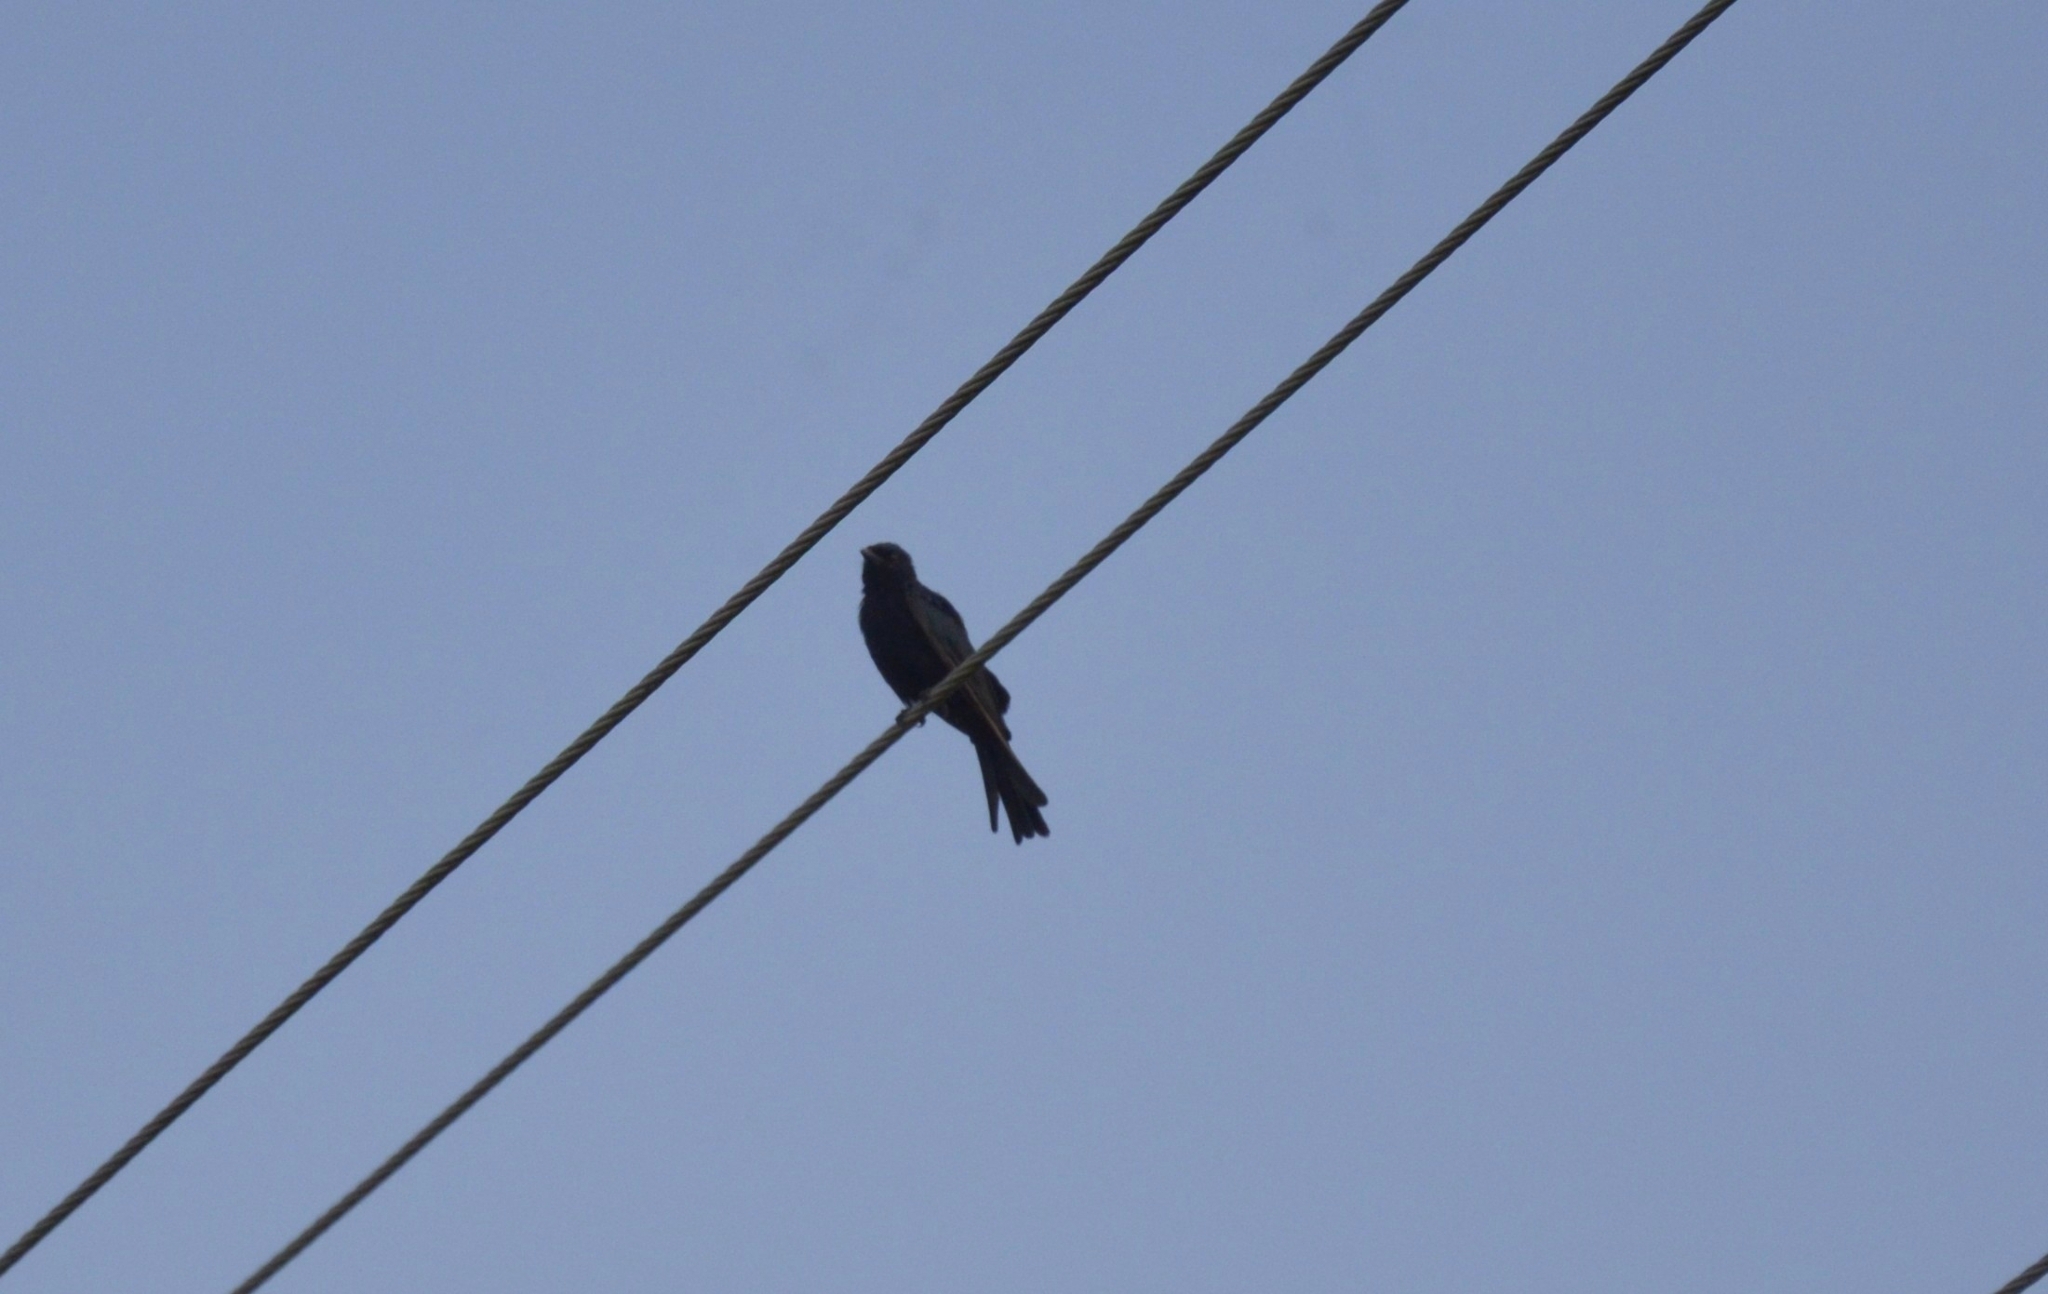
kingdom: Animalia
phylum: Chordata
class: Aves
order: Passeriformes
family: Dicruridae
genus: Dicrurus
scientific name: Dicrurus macrocercus
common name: Black drongo
